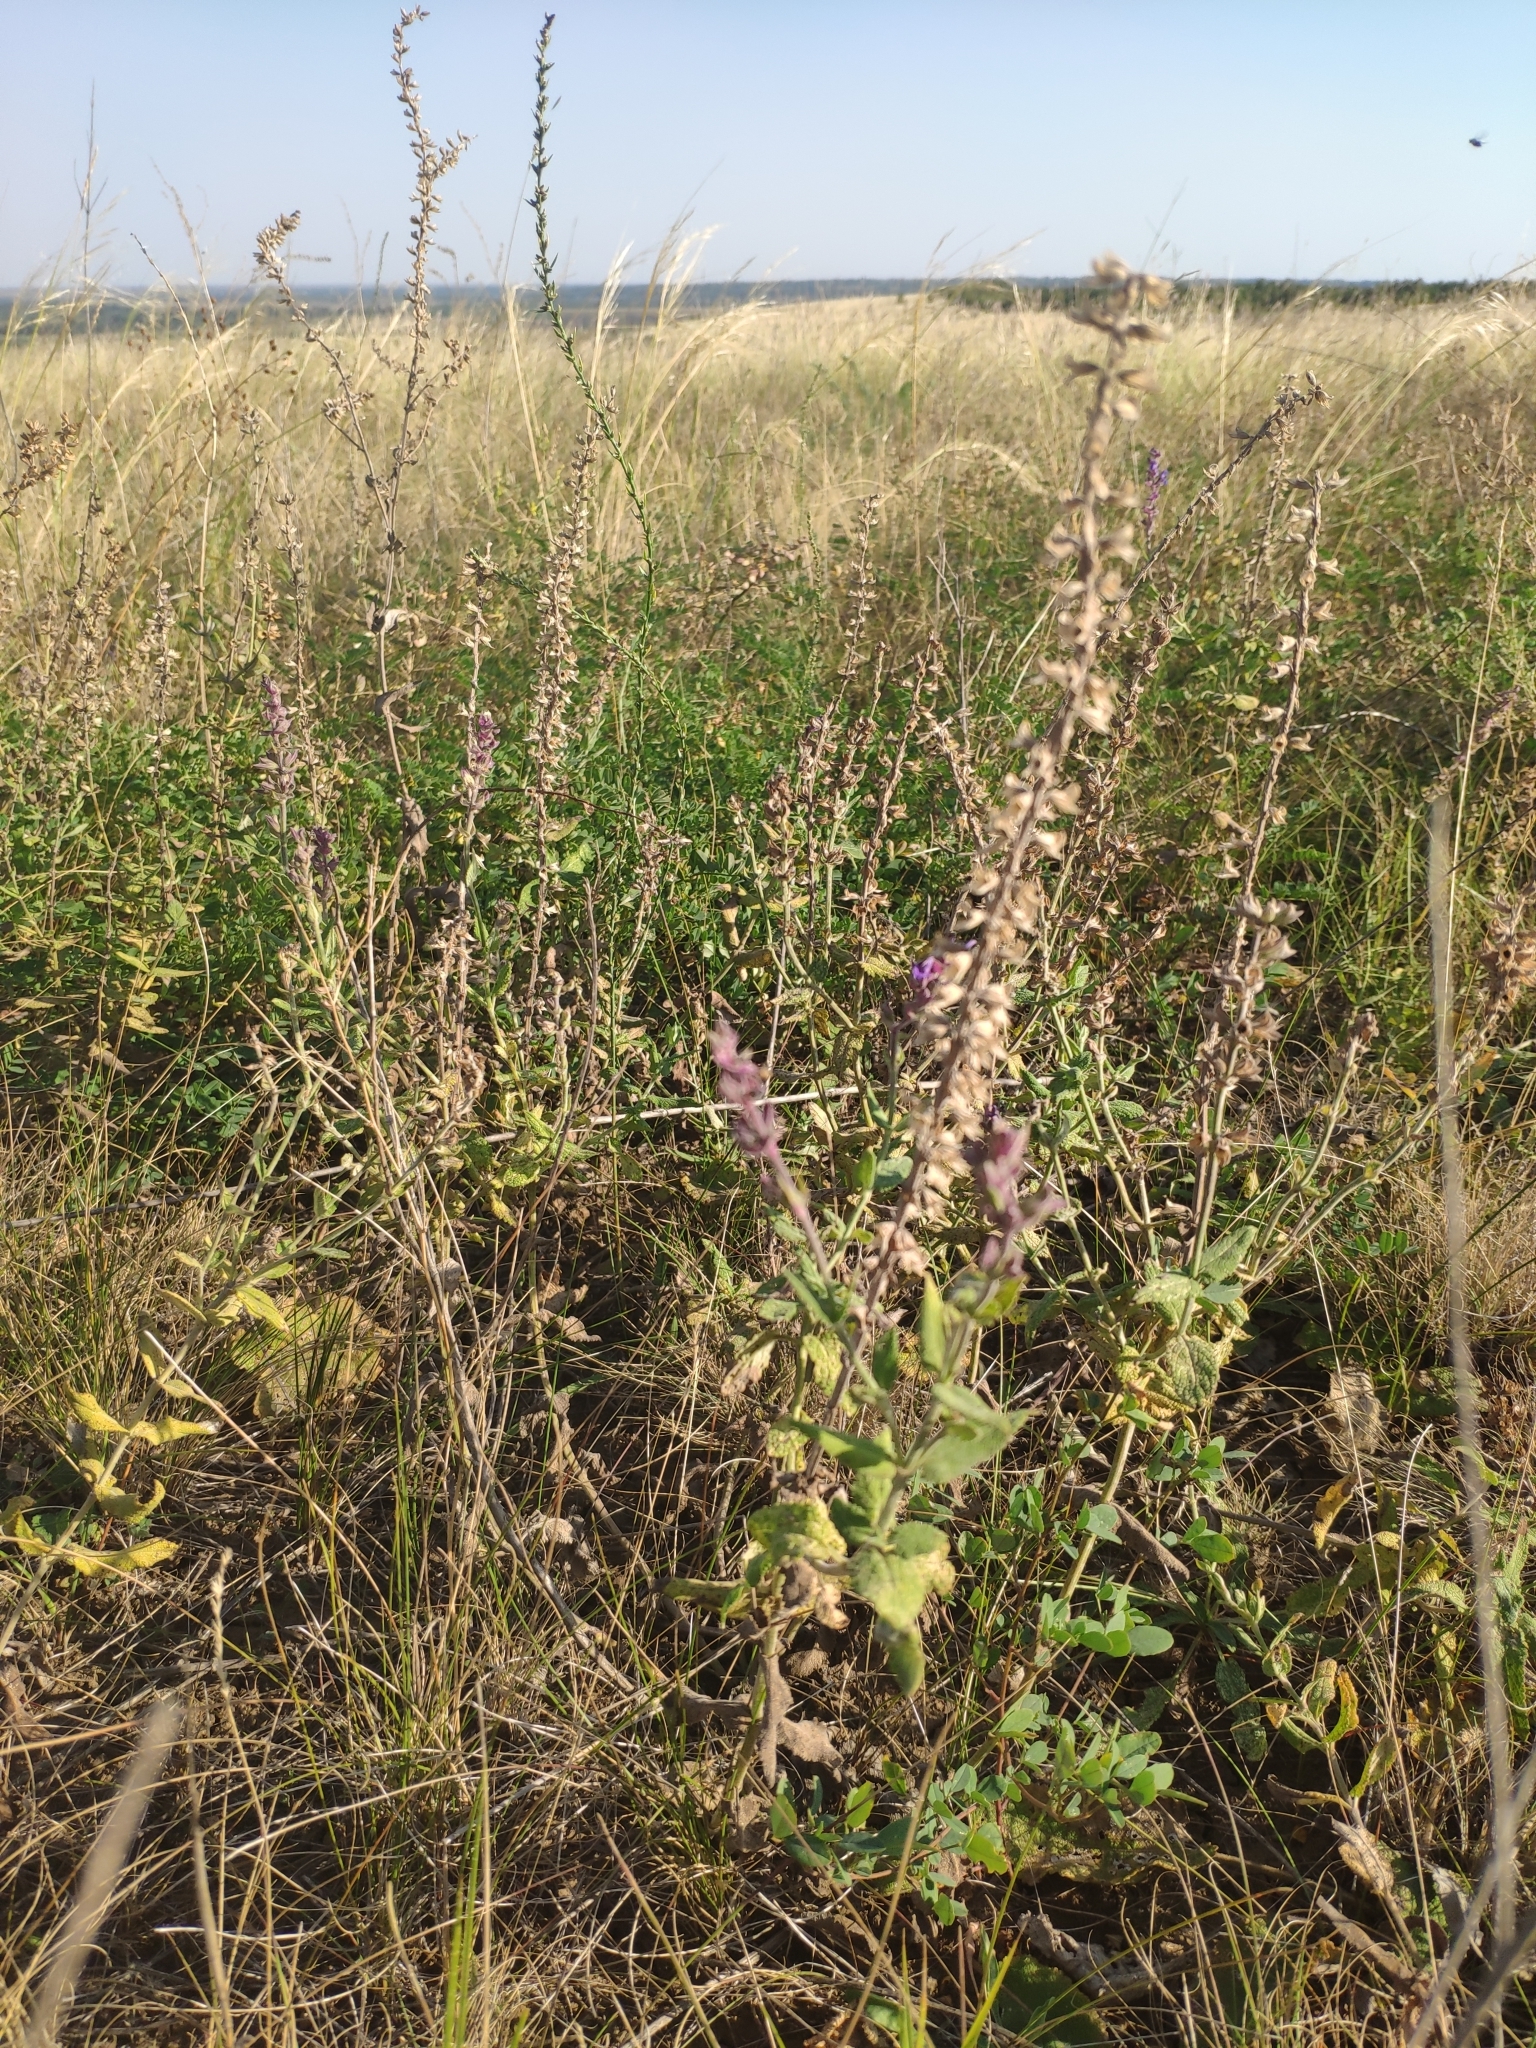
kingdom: Plantae
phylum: Tracheophyta
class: Magnoliopsida
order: Lamiales
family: Lamiaceae
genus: Salvia
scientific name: Salvia nemorosa
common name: Balkan clary
